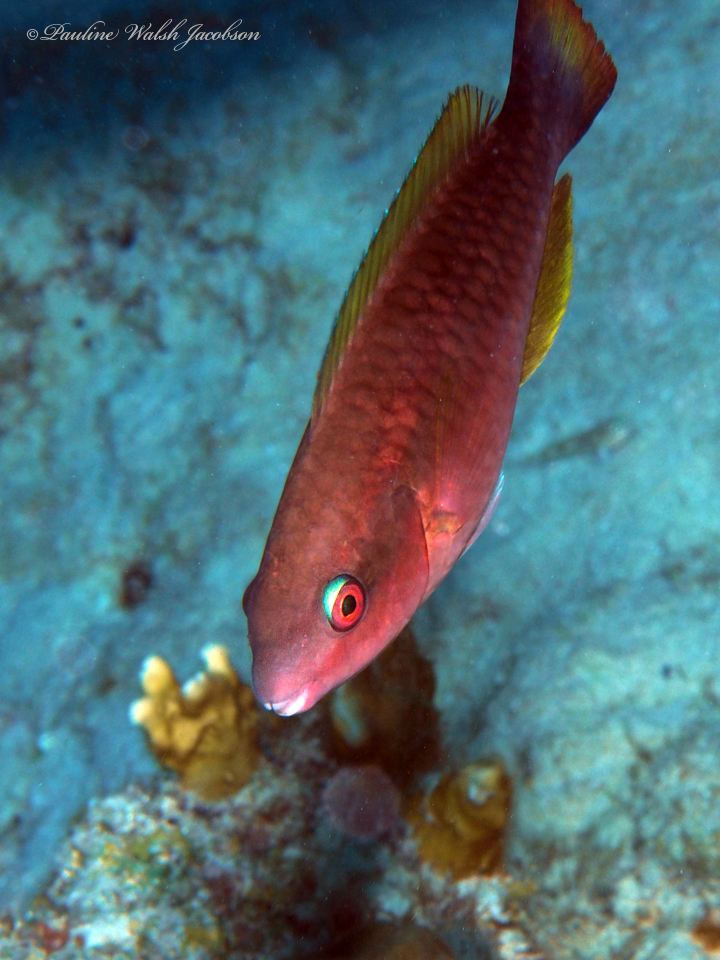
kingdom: Animalia
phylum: Chordata
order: Perciformes
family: Scaridae
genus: Scarus
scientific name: Scarus taeniopterus
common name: Princess parrotfish
